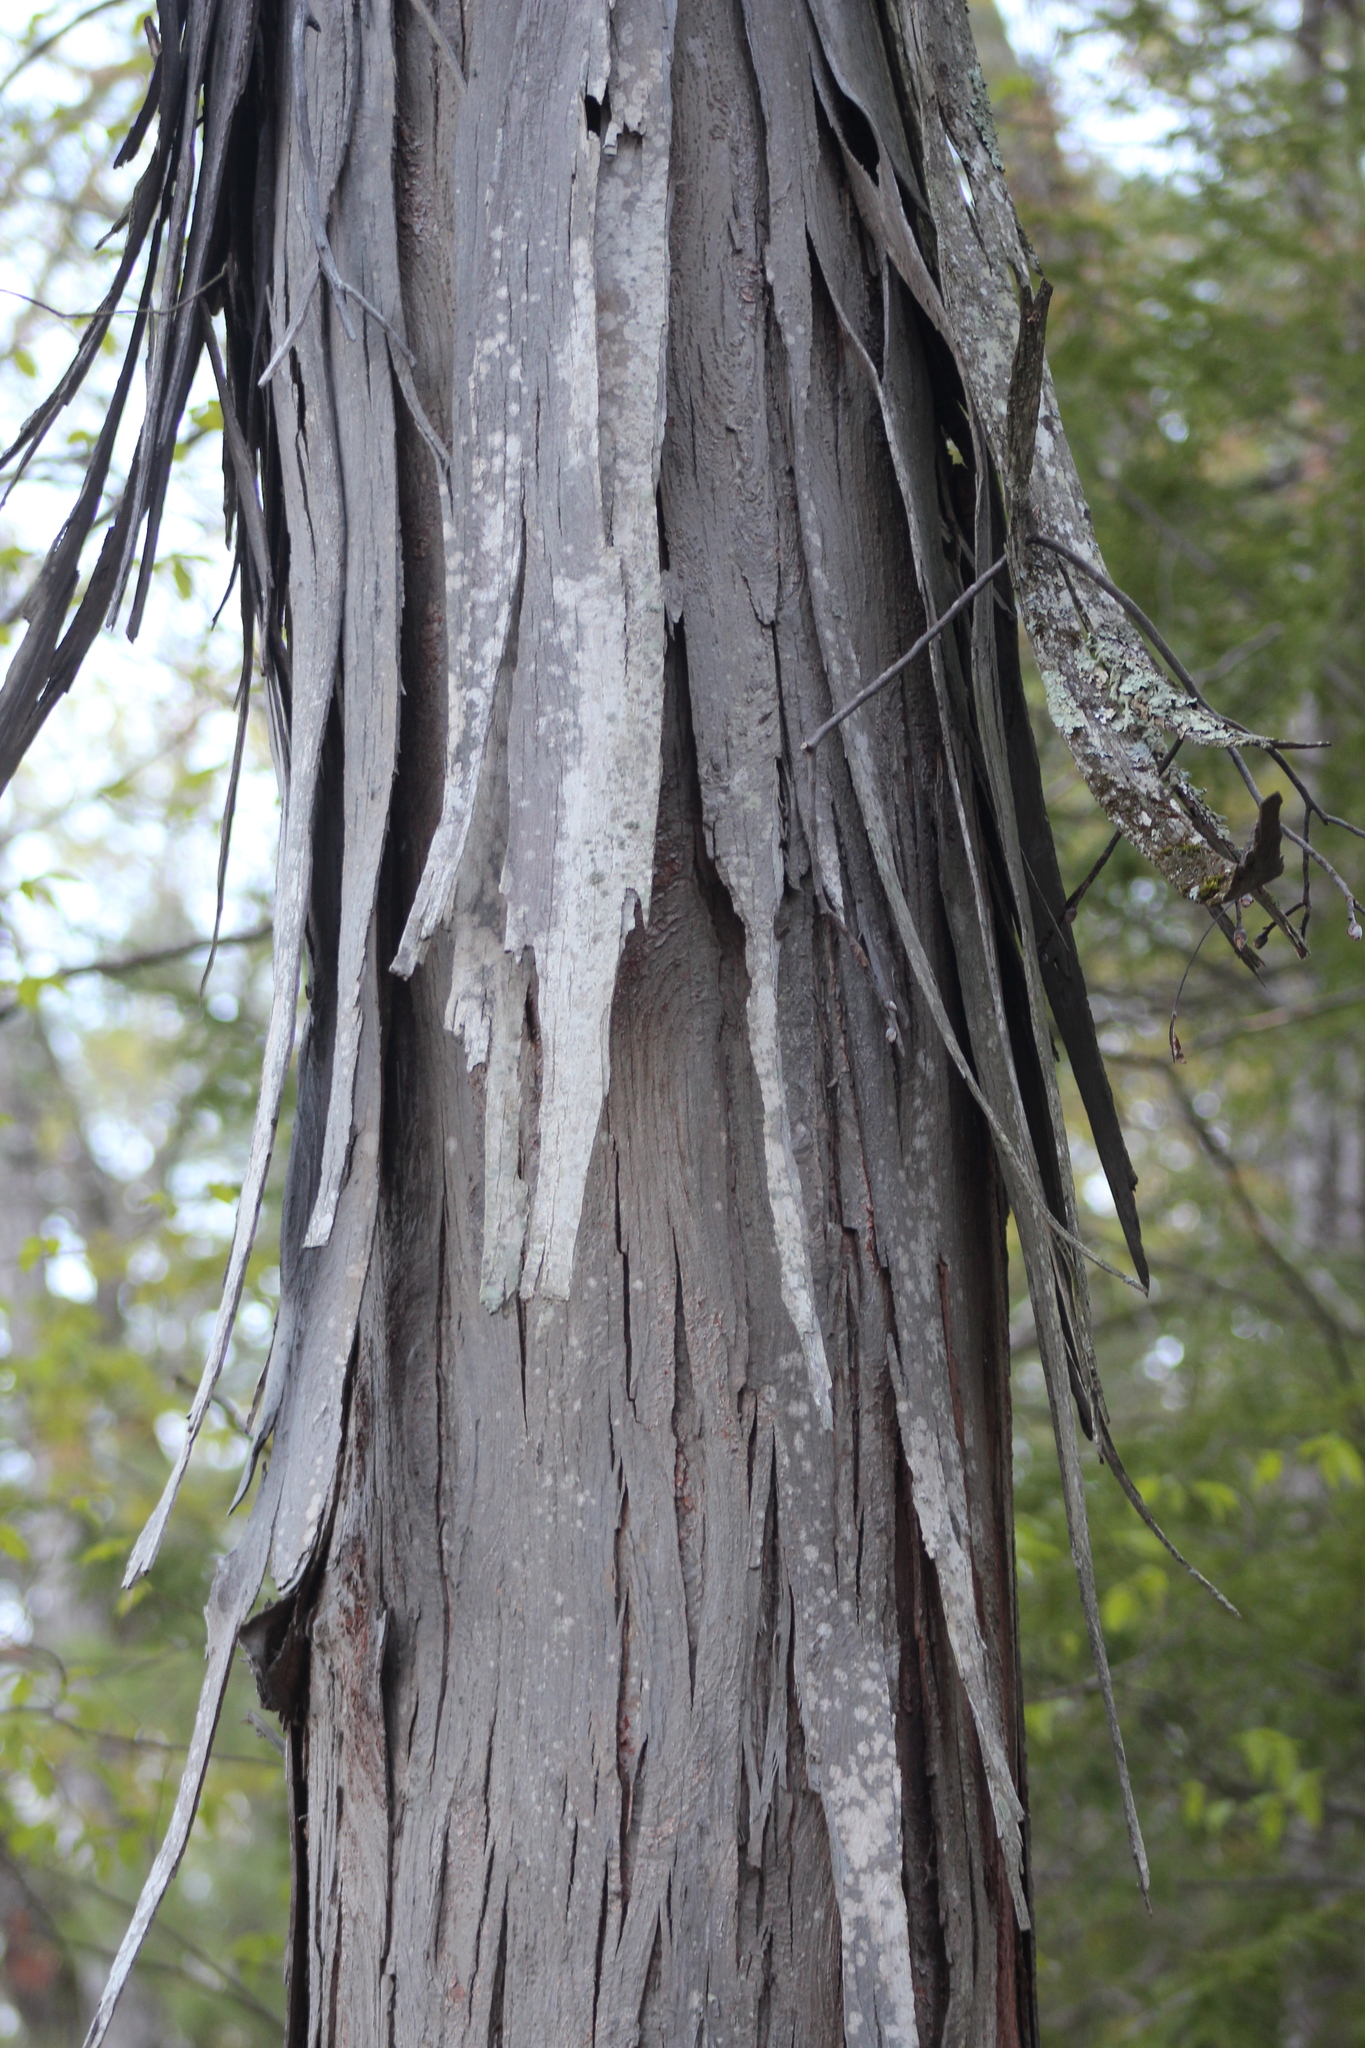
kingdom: Plantae
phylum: Tracheophyta
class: Magnoliopsida
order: Fagales
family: Juglandaceae
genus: Carya
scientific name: Carya ovata
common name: Shagbark hickory
